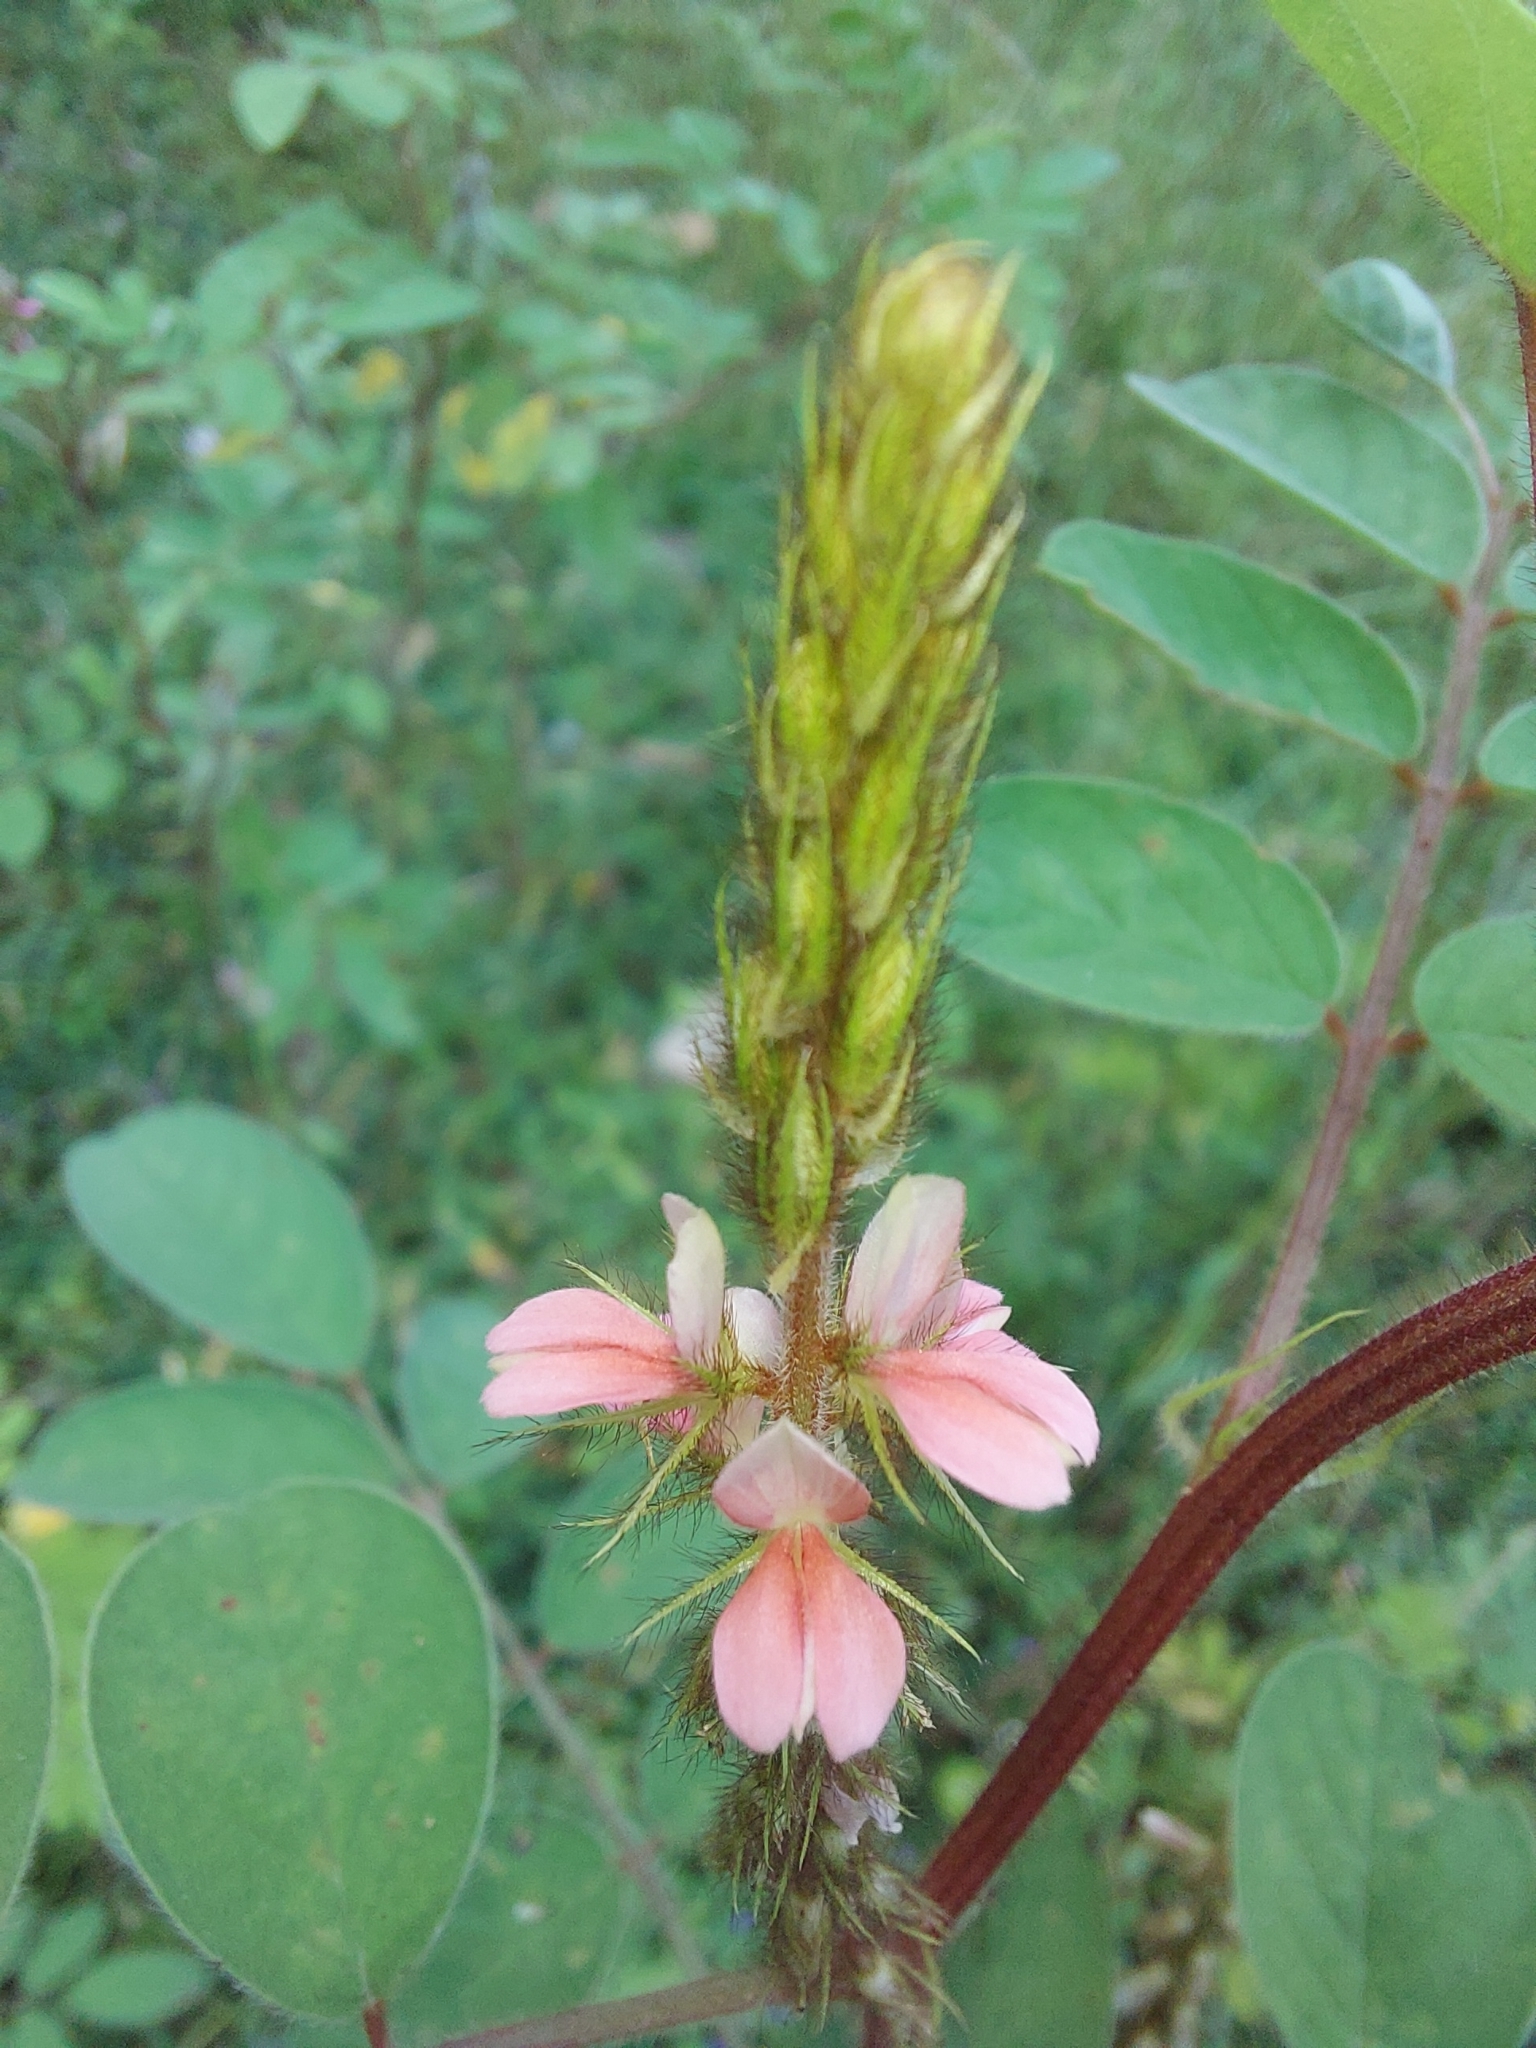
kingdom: Plantae
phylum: Tracheophyta
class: Magnoliopsida
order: Fabales
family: Fabaceae
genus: Indigofera
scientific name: Indigofera hirsuta
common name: Hairy indigo
